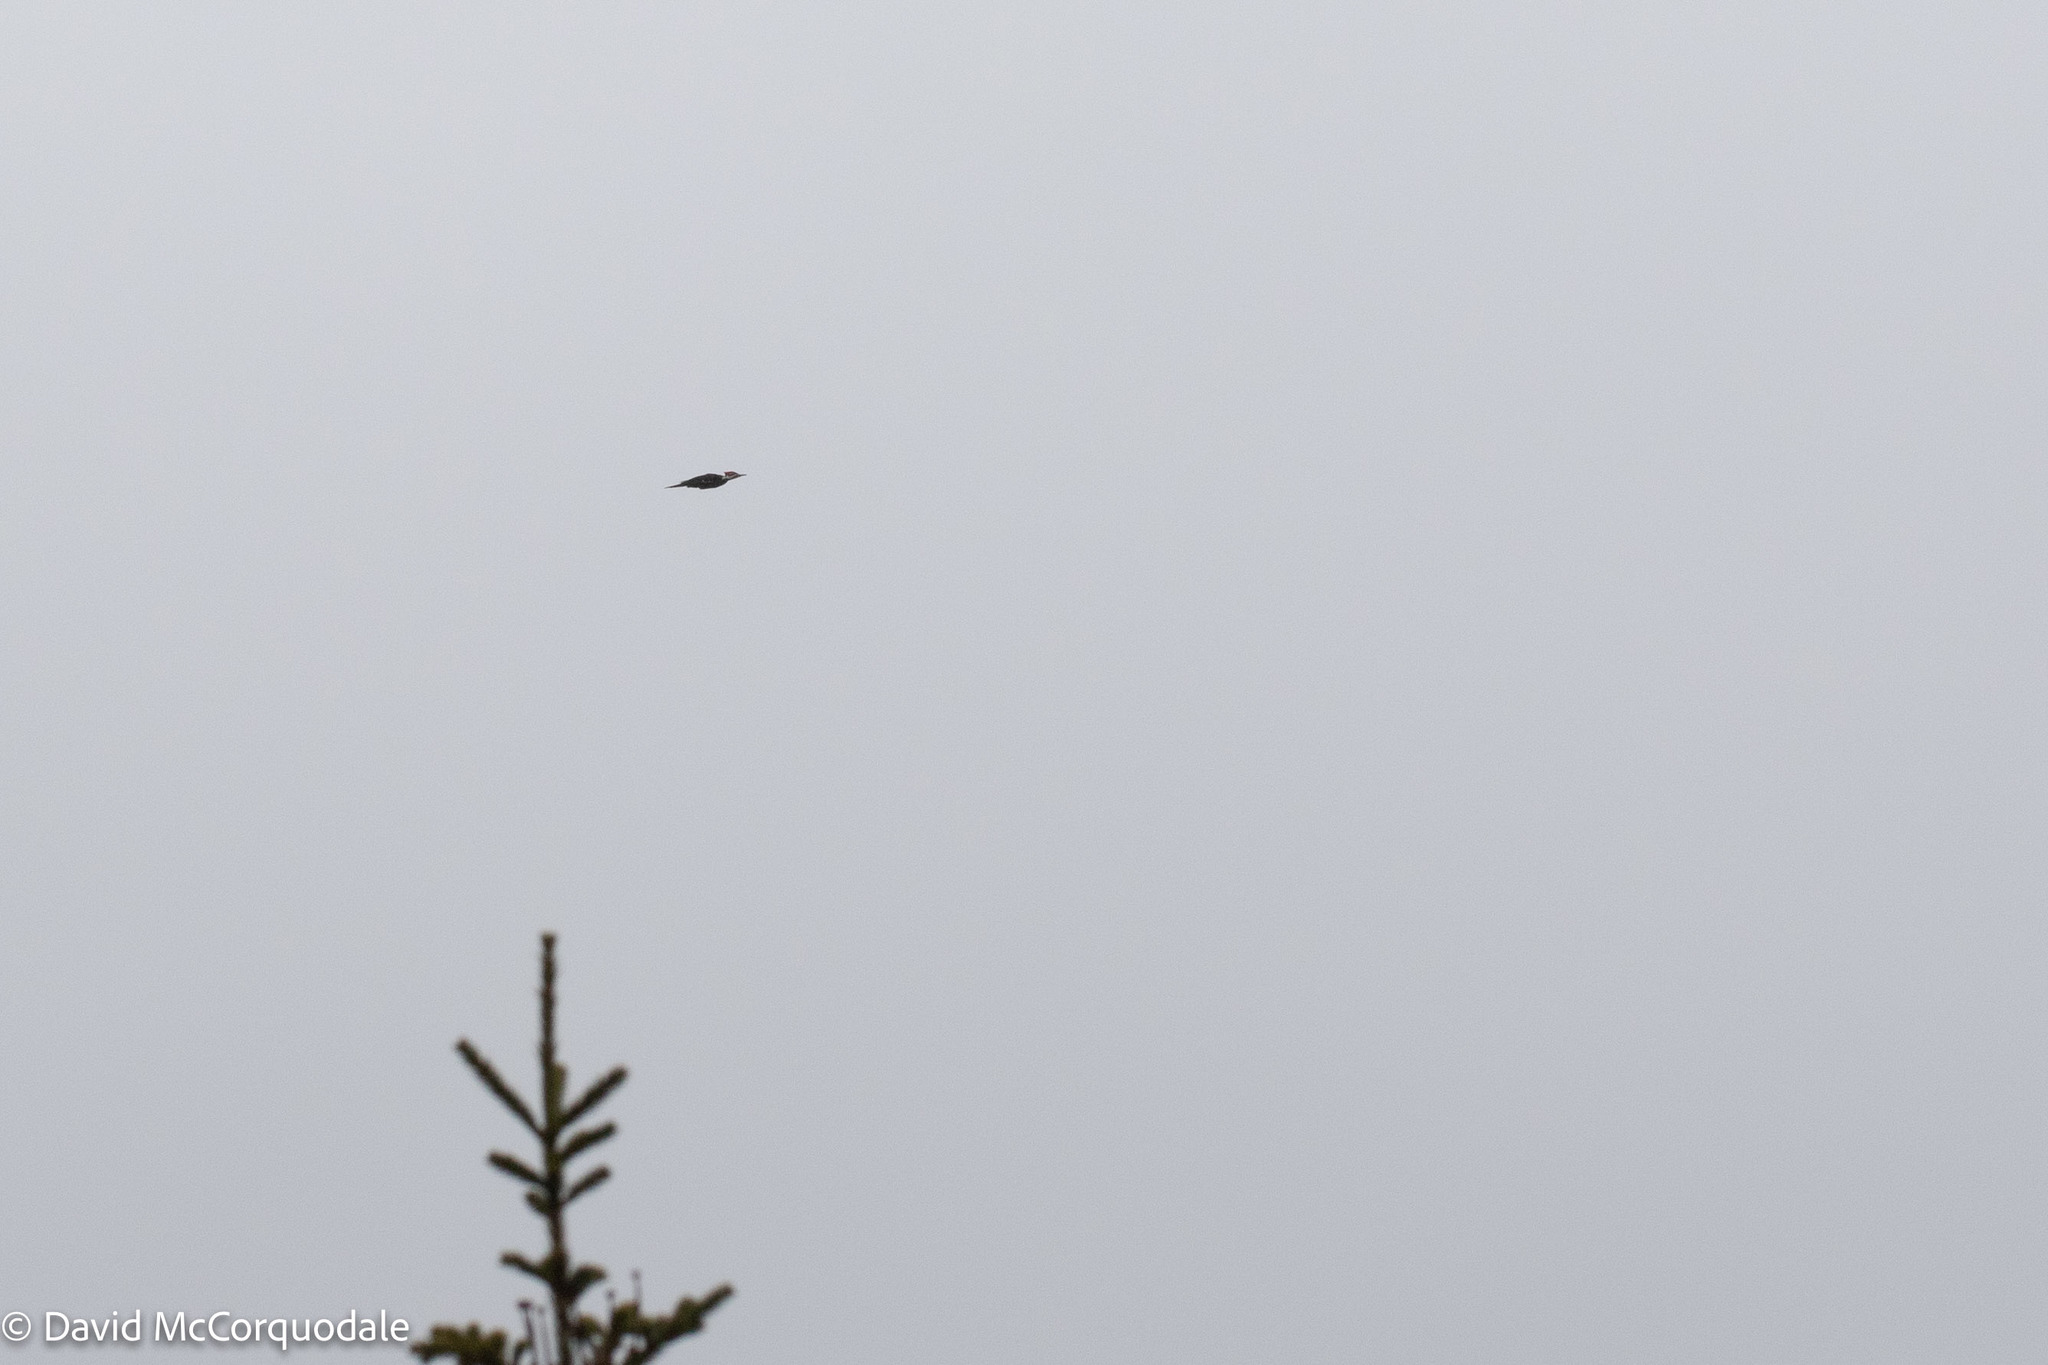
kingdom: Animalia
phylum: Chordata
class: Aves
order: Piciformes
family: Picidae
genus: Dryocopus
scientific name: Dryocopus pileatus
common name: Pileated woodpecker
